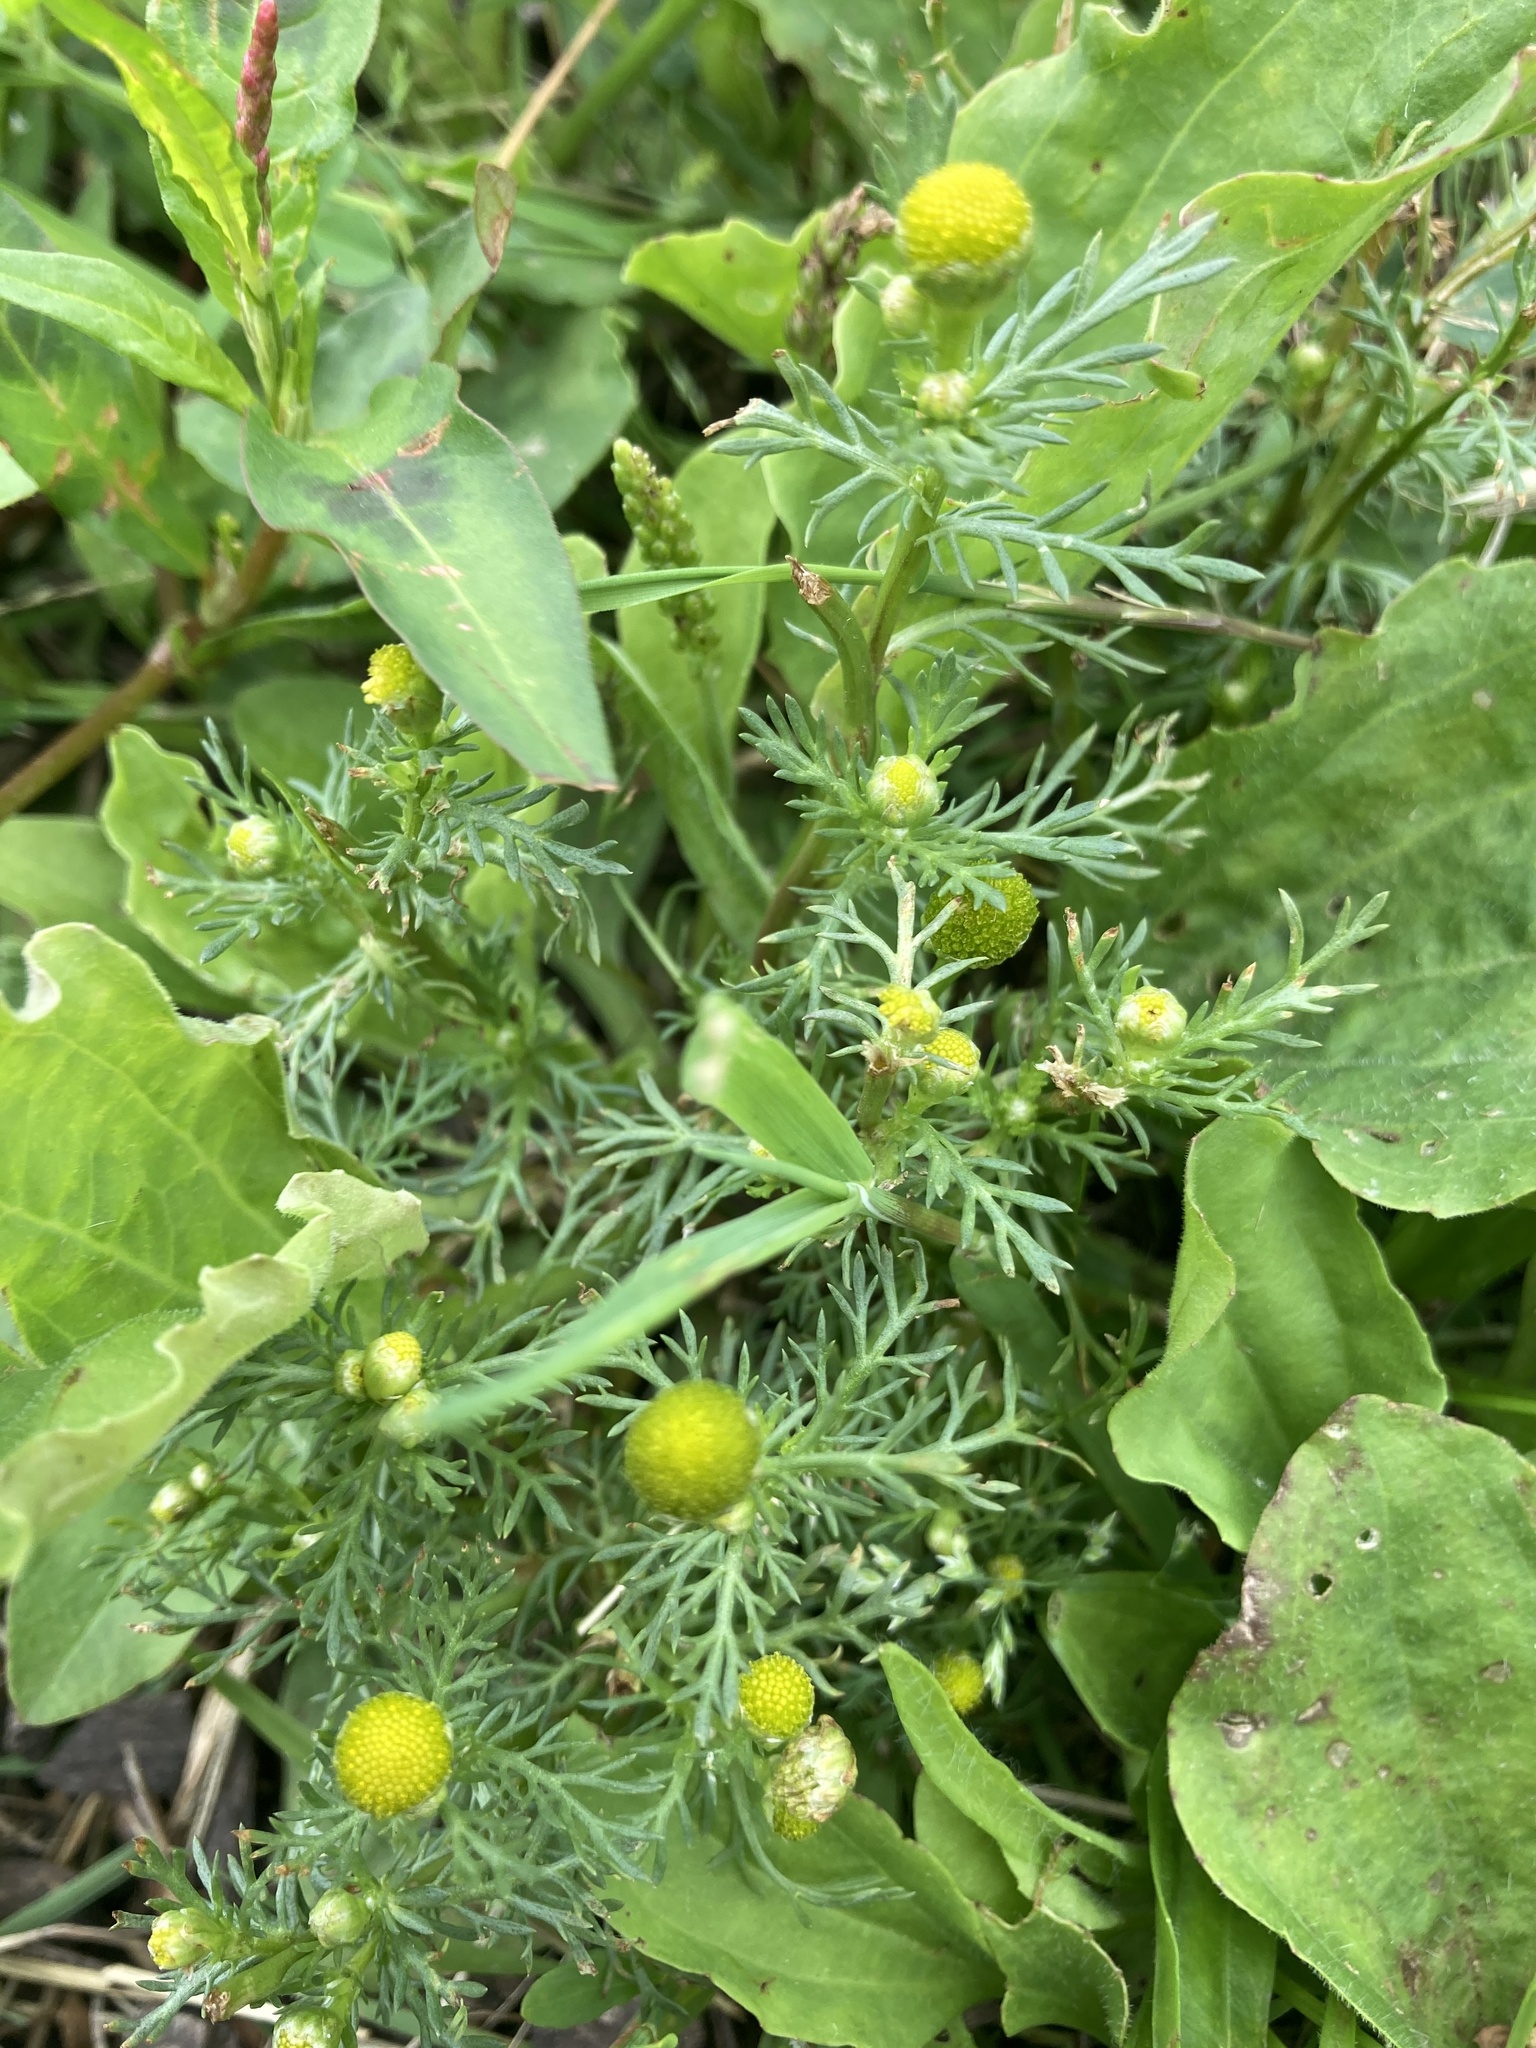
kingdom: Plantae
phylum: Tracheophyta
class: Magnoliopsida
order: Asterales
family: Asteraceae
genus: Matricaria
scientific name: Matricaria discoidea
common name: Disc mayweed
